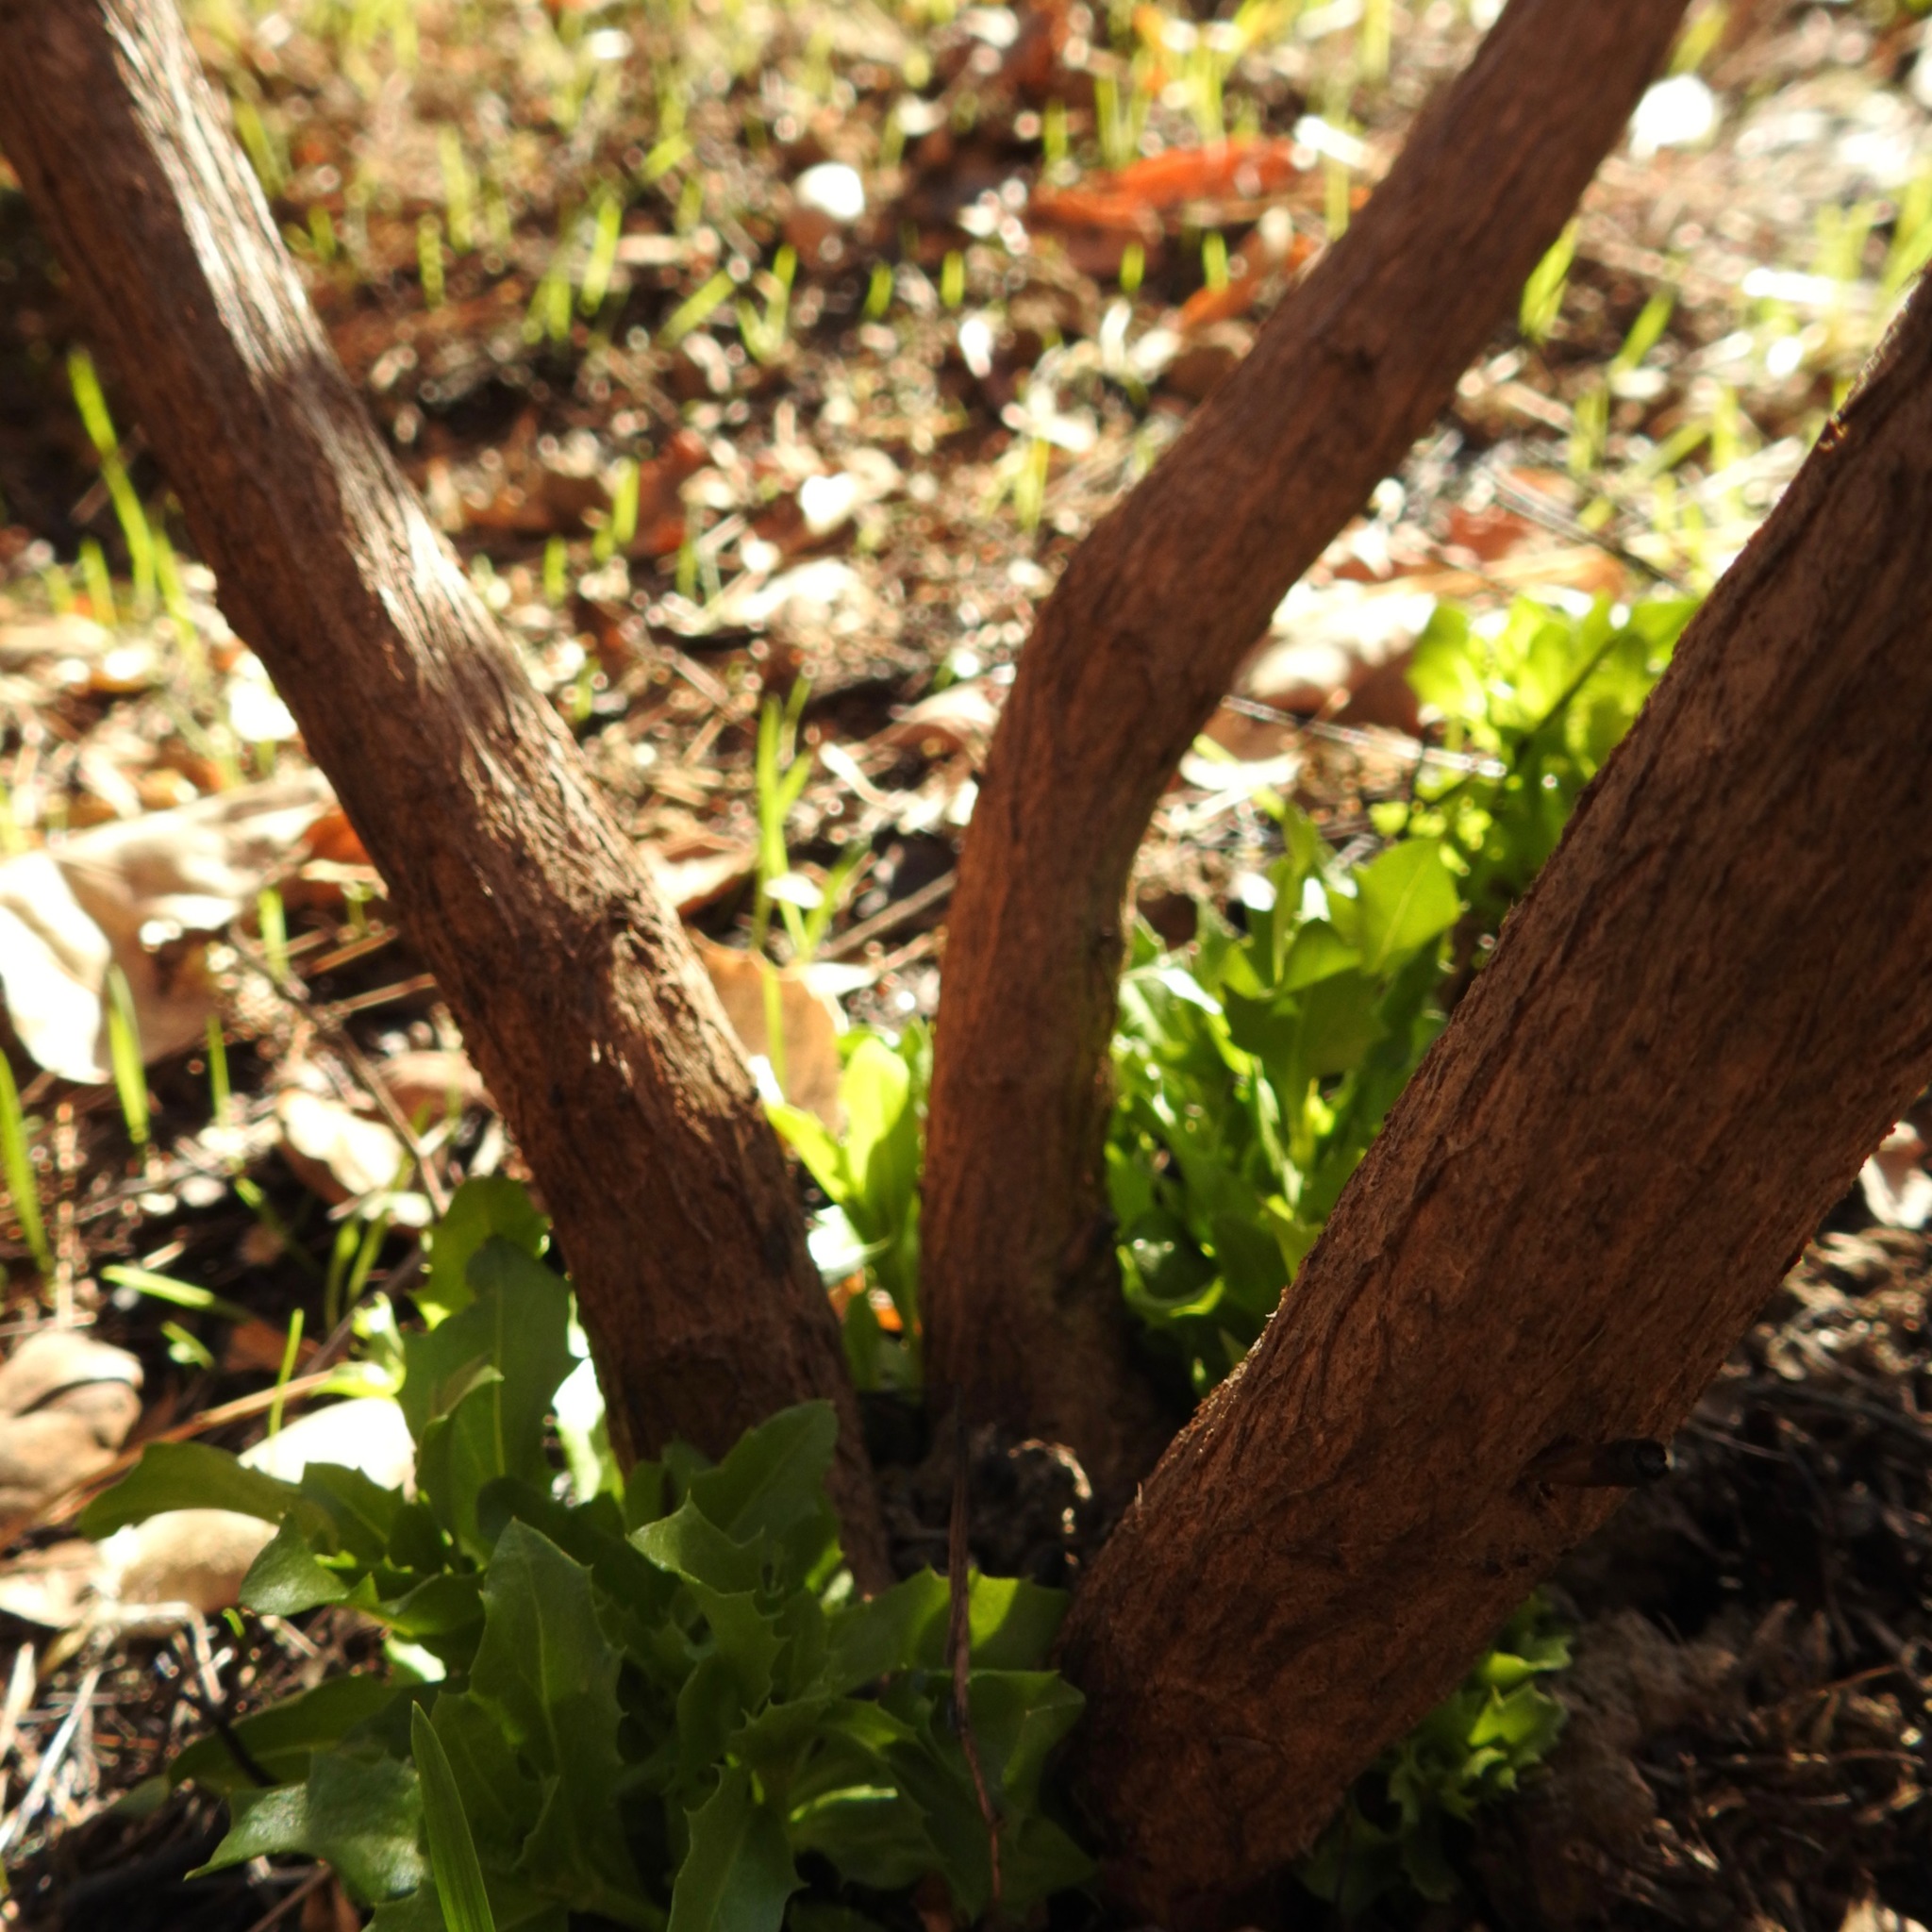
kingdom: Plantae
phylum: Tracheophyta
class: Magnoliopsida
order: Asterales
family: Asteraceae
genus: Baccharis
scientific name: Baccharis pilularis
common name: Coyotebrush
